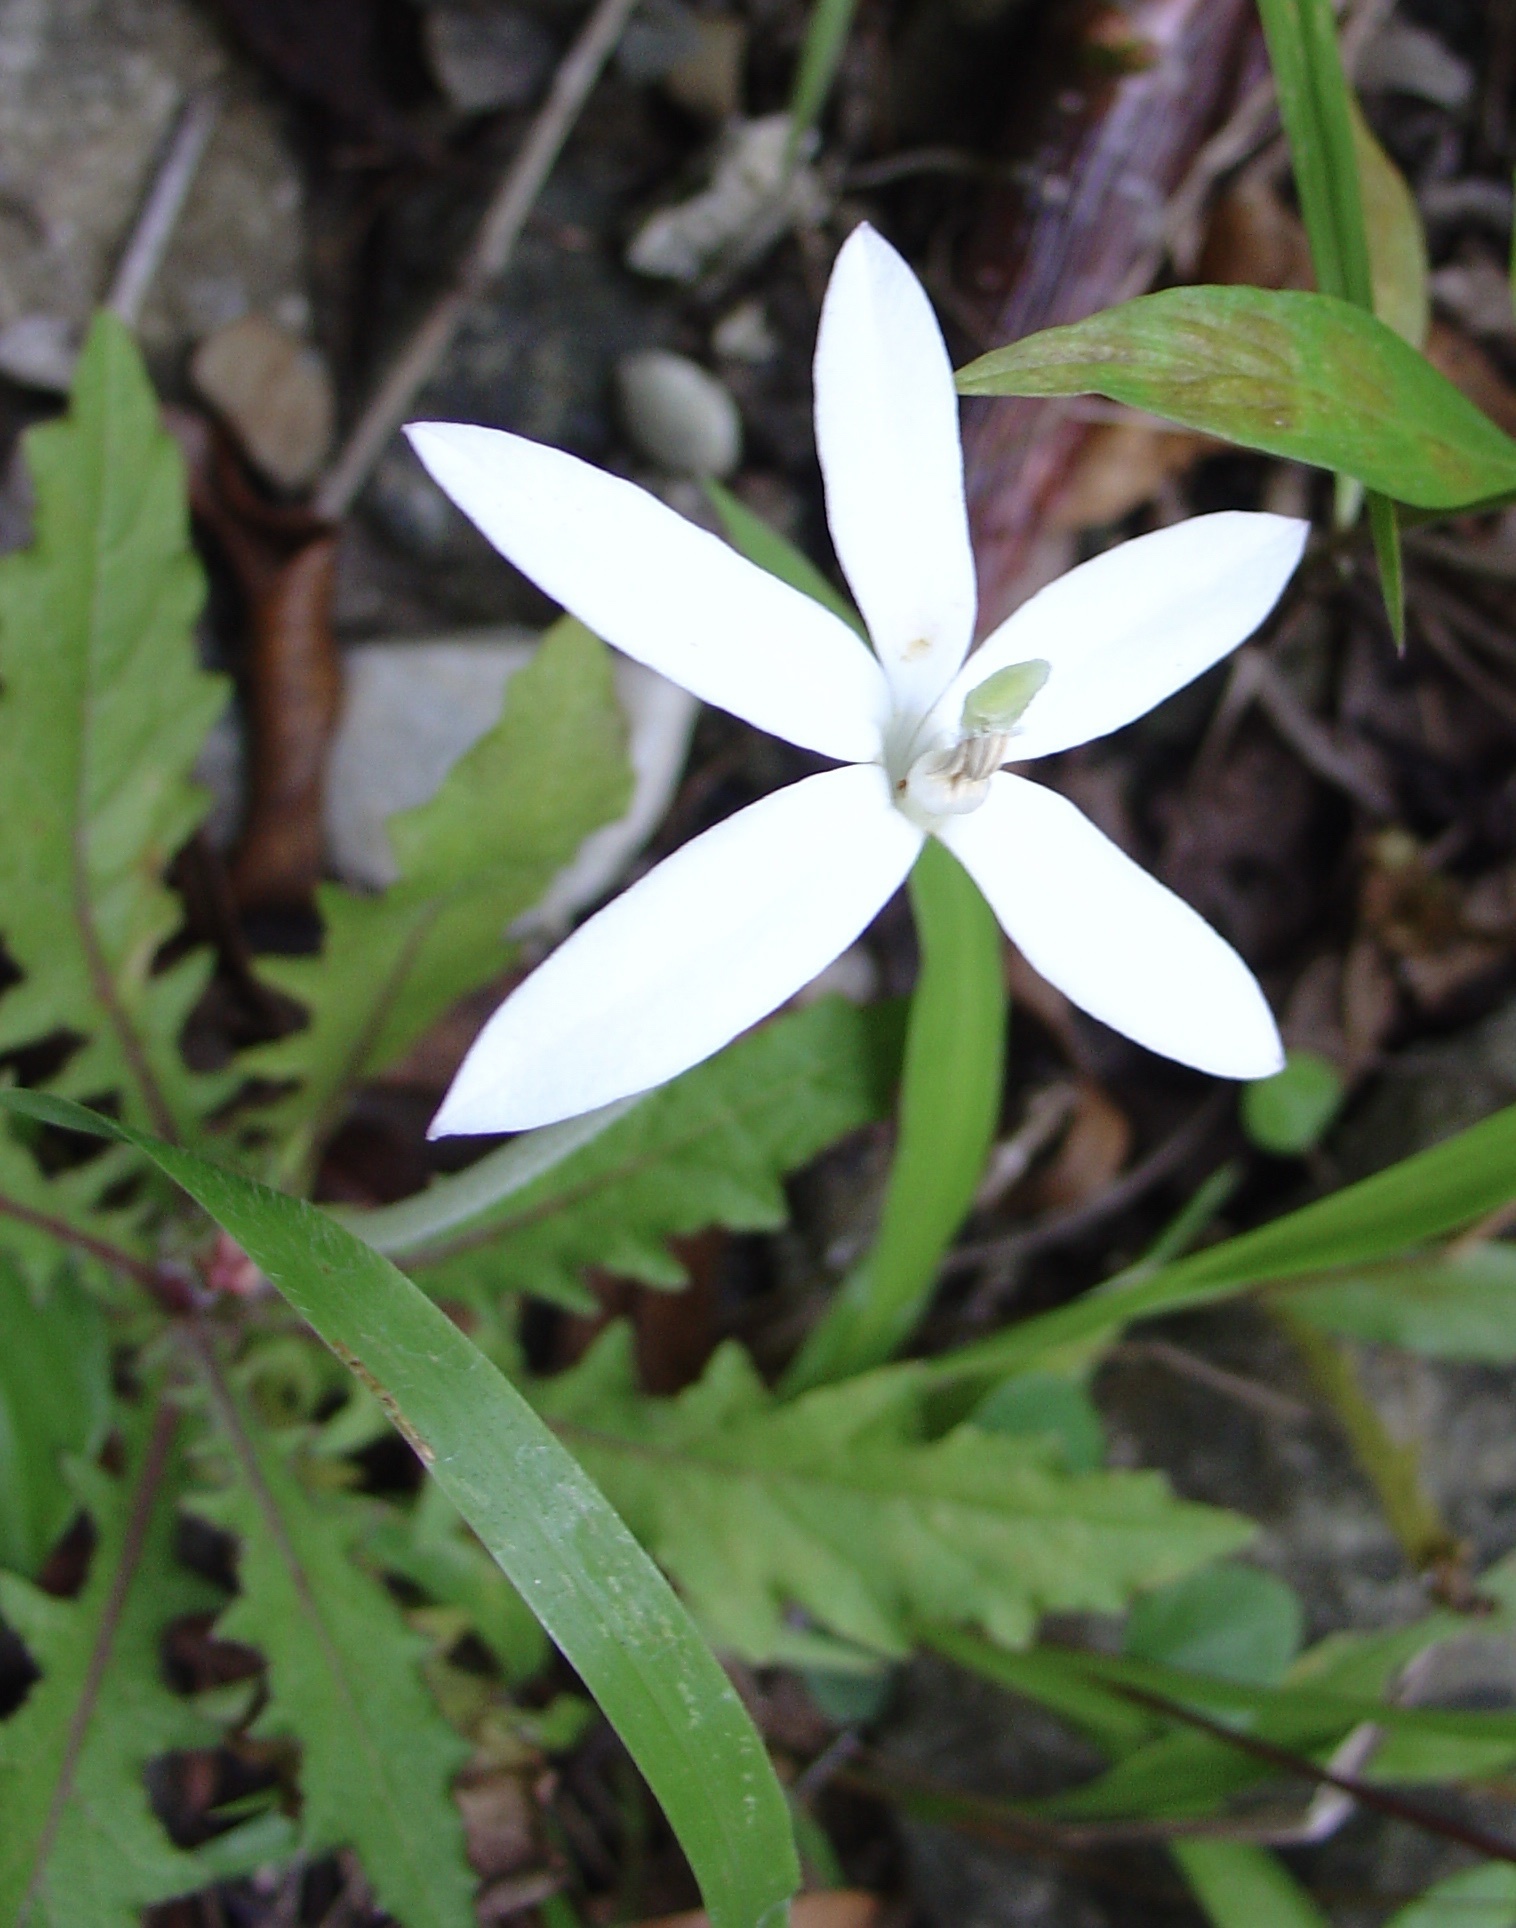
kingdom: Plantae
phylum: Tracheophyta
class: Magnoliopsida
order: Asterales
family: Campanulaceae
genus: Hippobroma
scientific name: Hippobroma longiflora
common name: Madamfate
